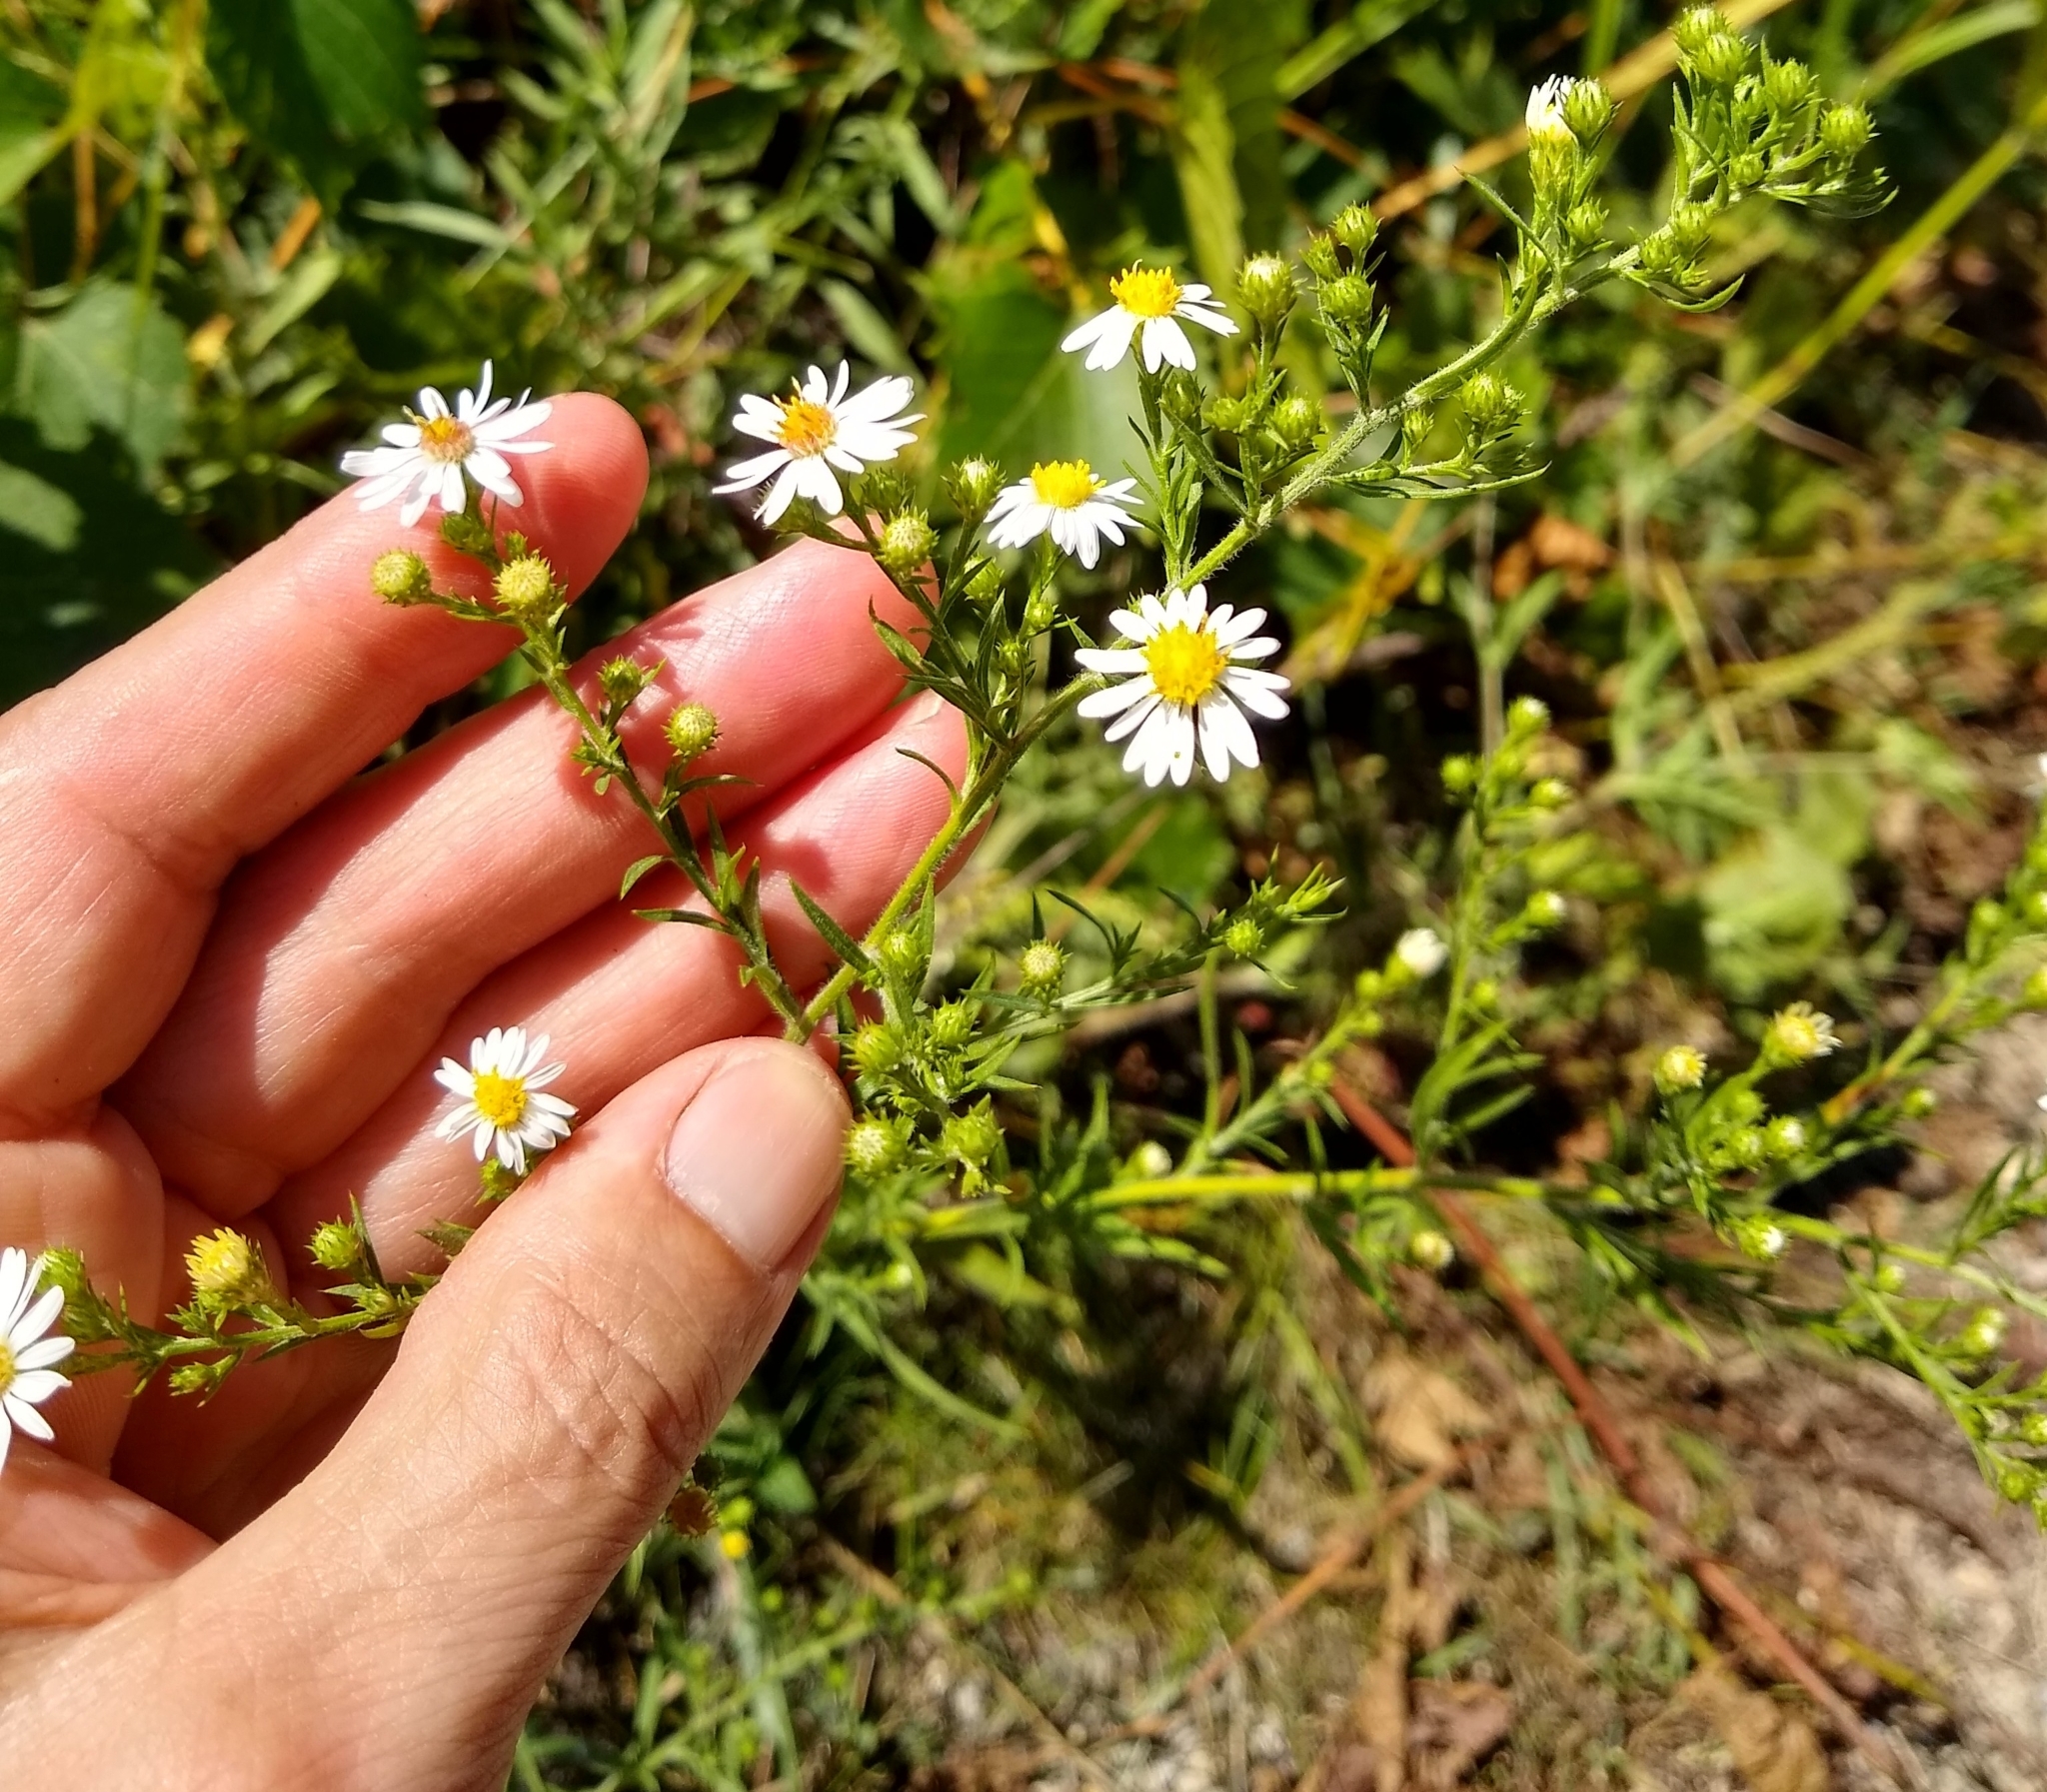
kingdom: Plantae
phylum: Tracheophyta
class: Magnoliopsida
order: Asterales
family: Asteraceae
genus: Symphyotrichum
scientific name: Symphyotrichum pilosum
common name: Awl aster
